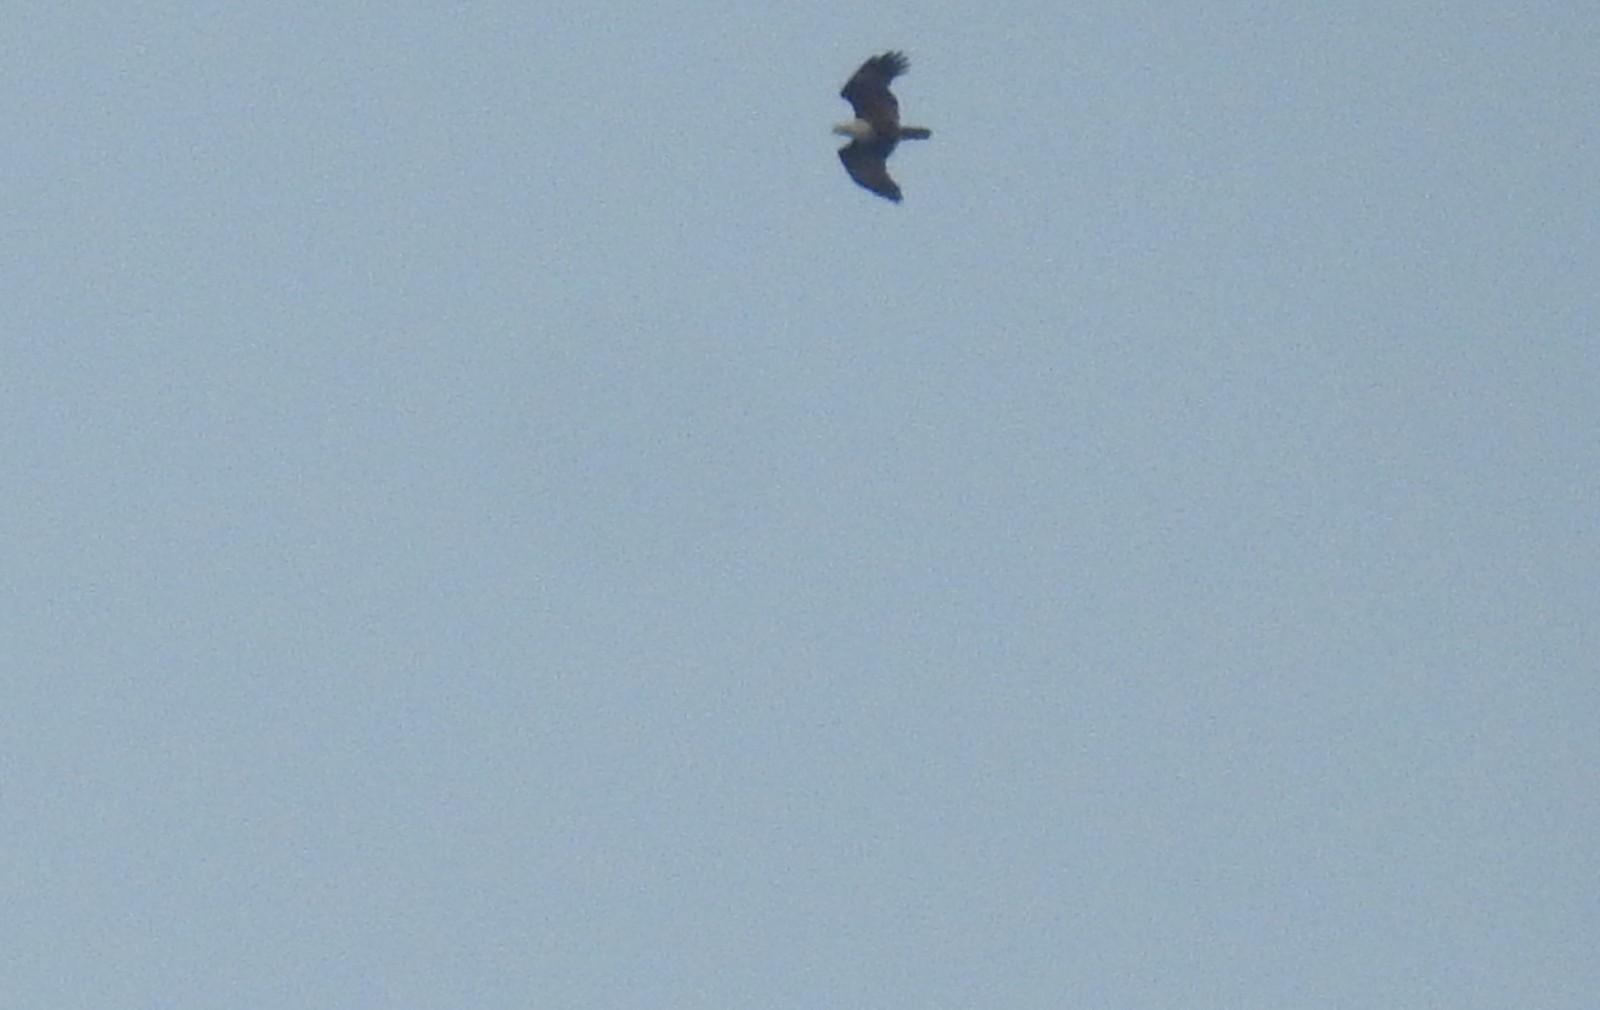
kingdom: Animalia
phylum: Chordata
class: Aves
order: Accipitriformes
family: Accipitridae
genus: Haliastur
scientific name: Haliastur indus
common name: Brahminy kite
